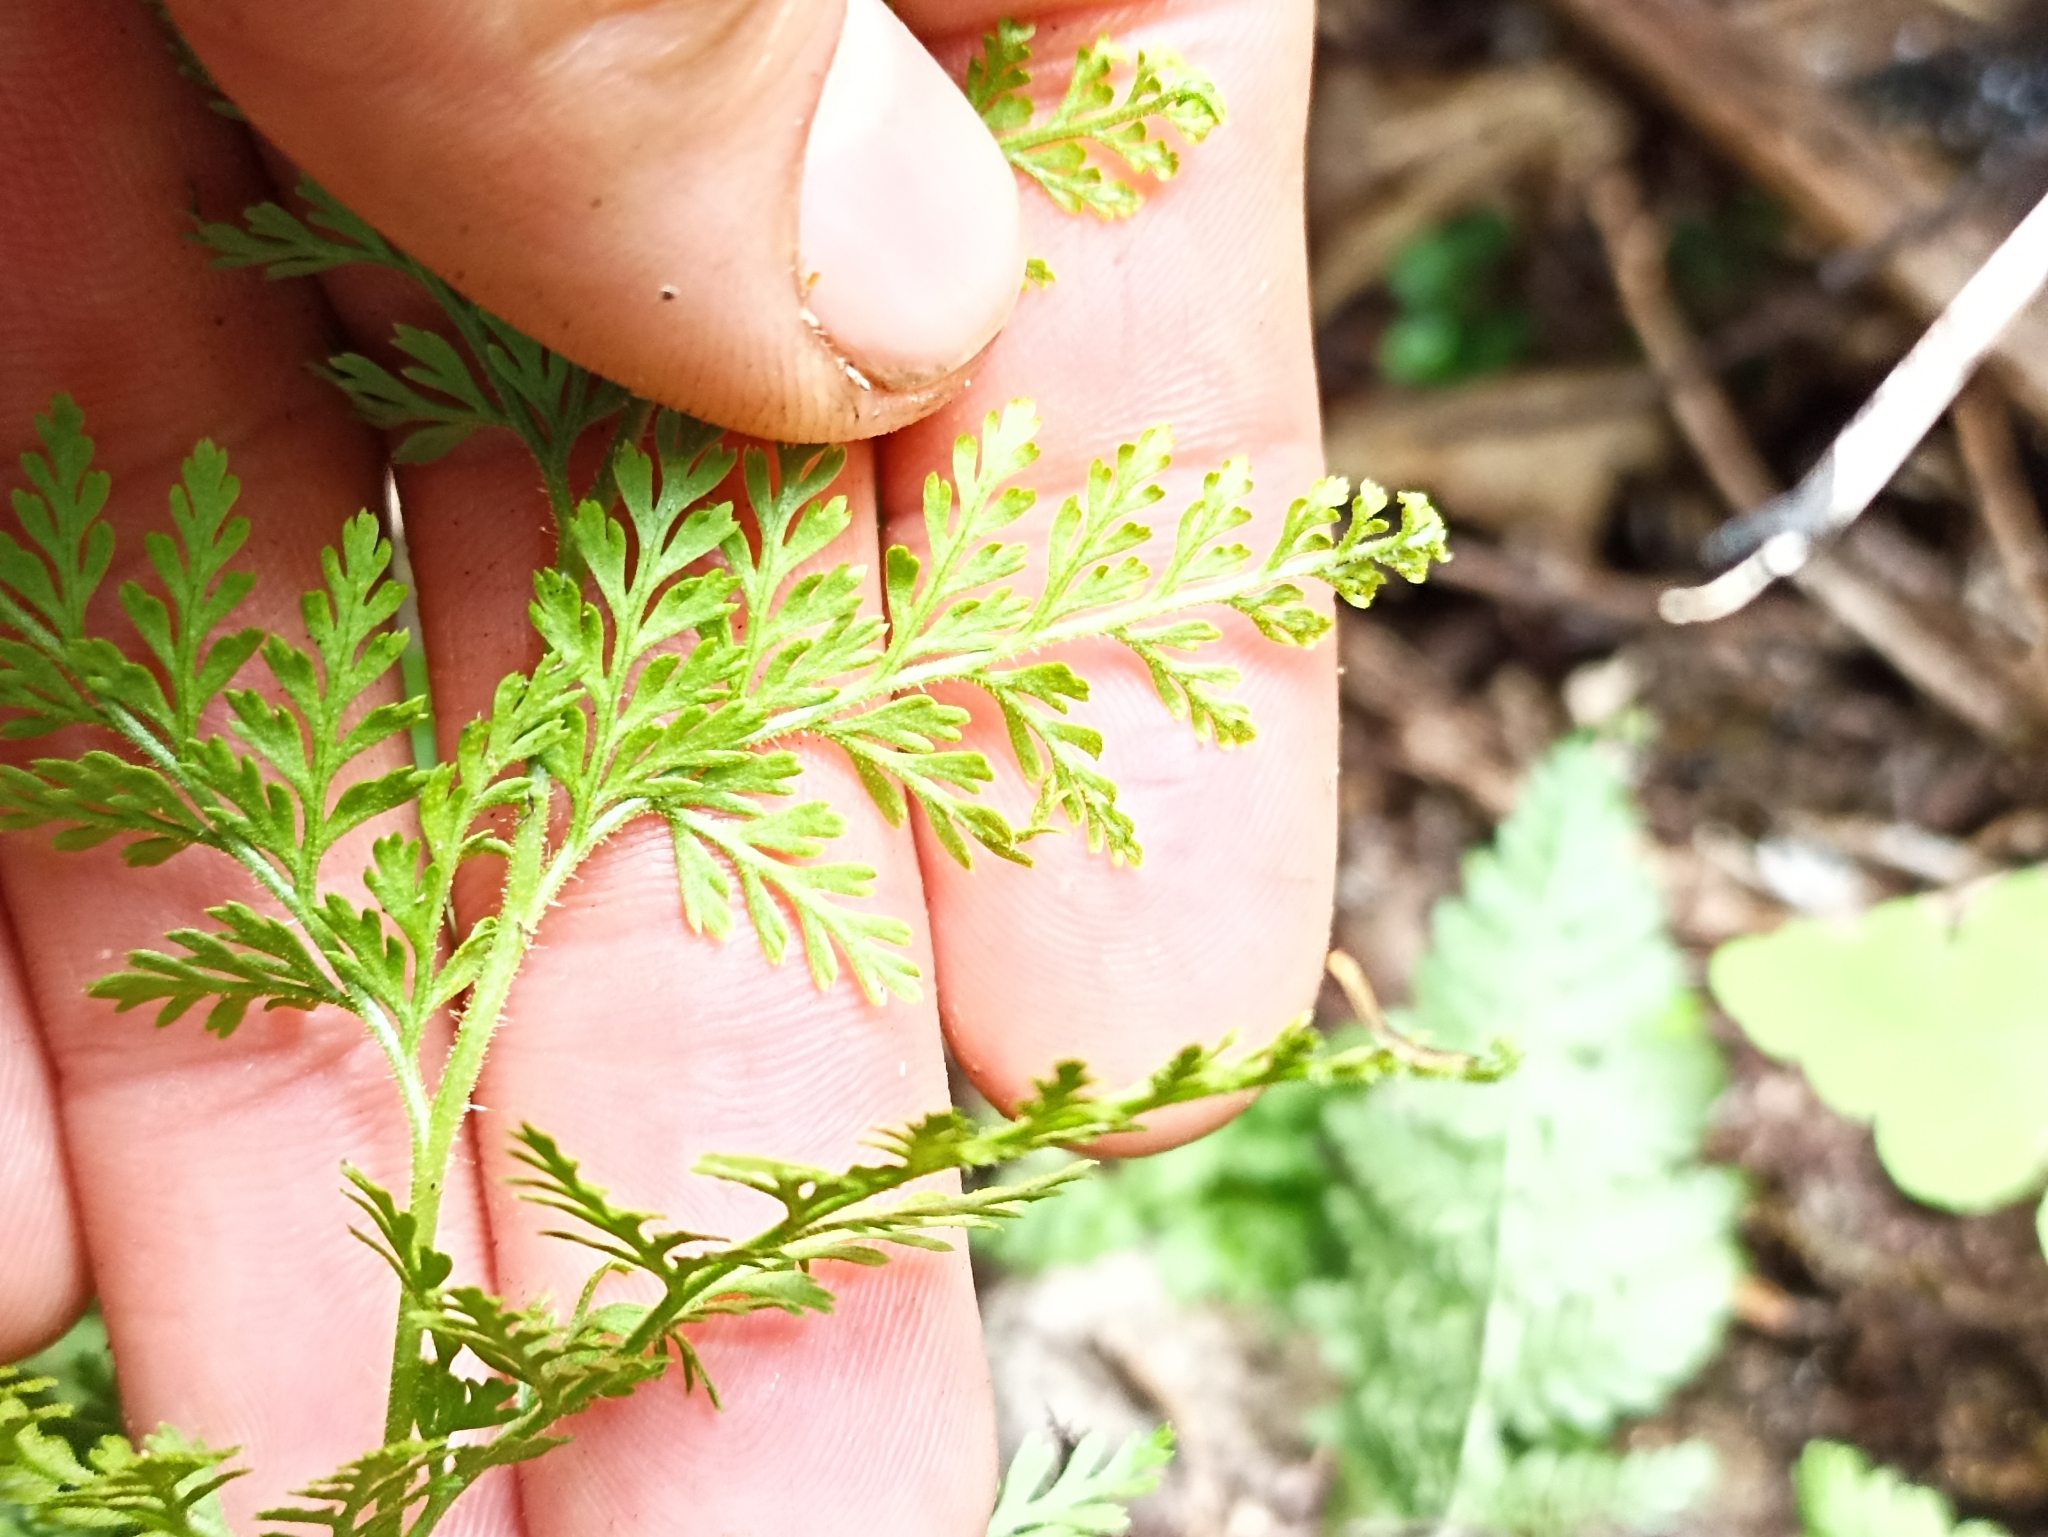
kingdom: Plantae
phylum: Tracheophyta
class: Polypodiopsida
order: Polypodiales
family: Dennstaedtiaceae
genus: Paesia
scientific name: Paesia scaberula
